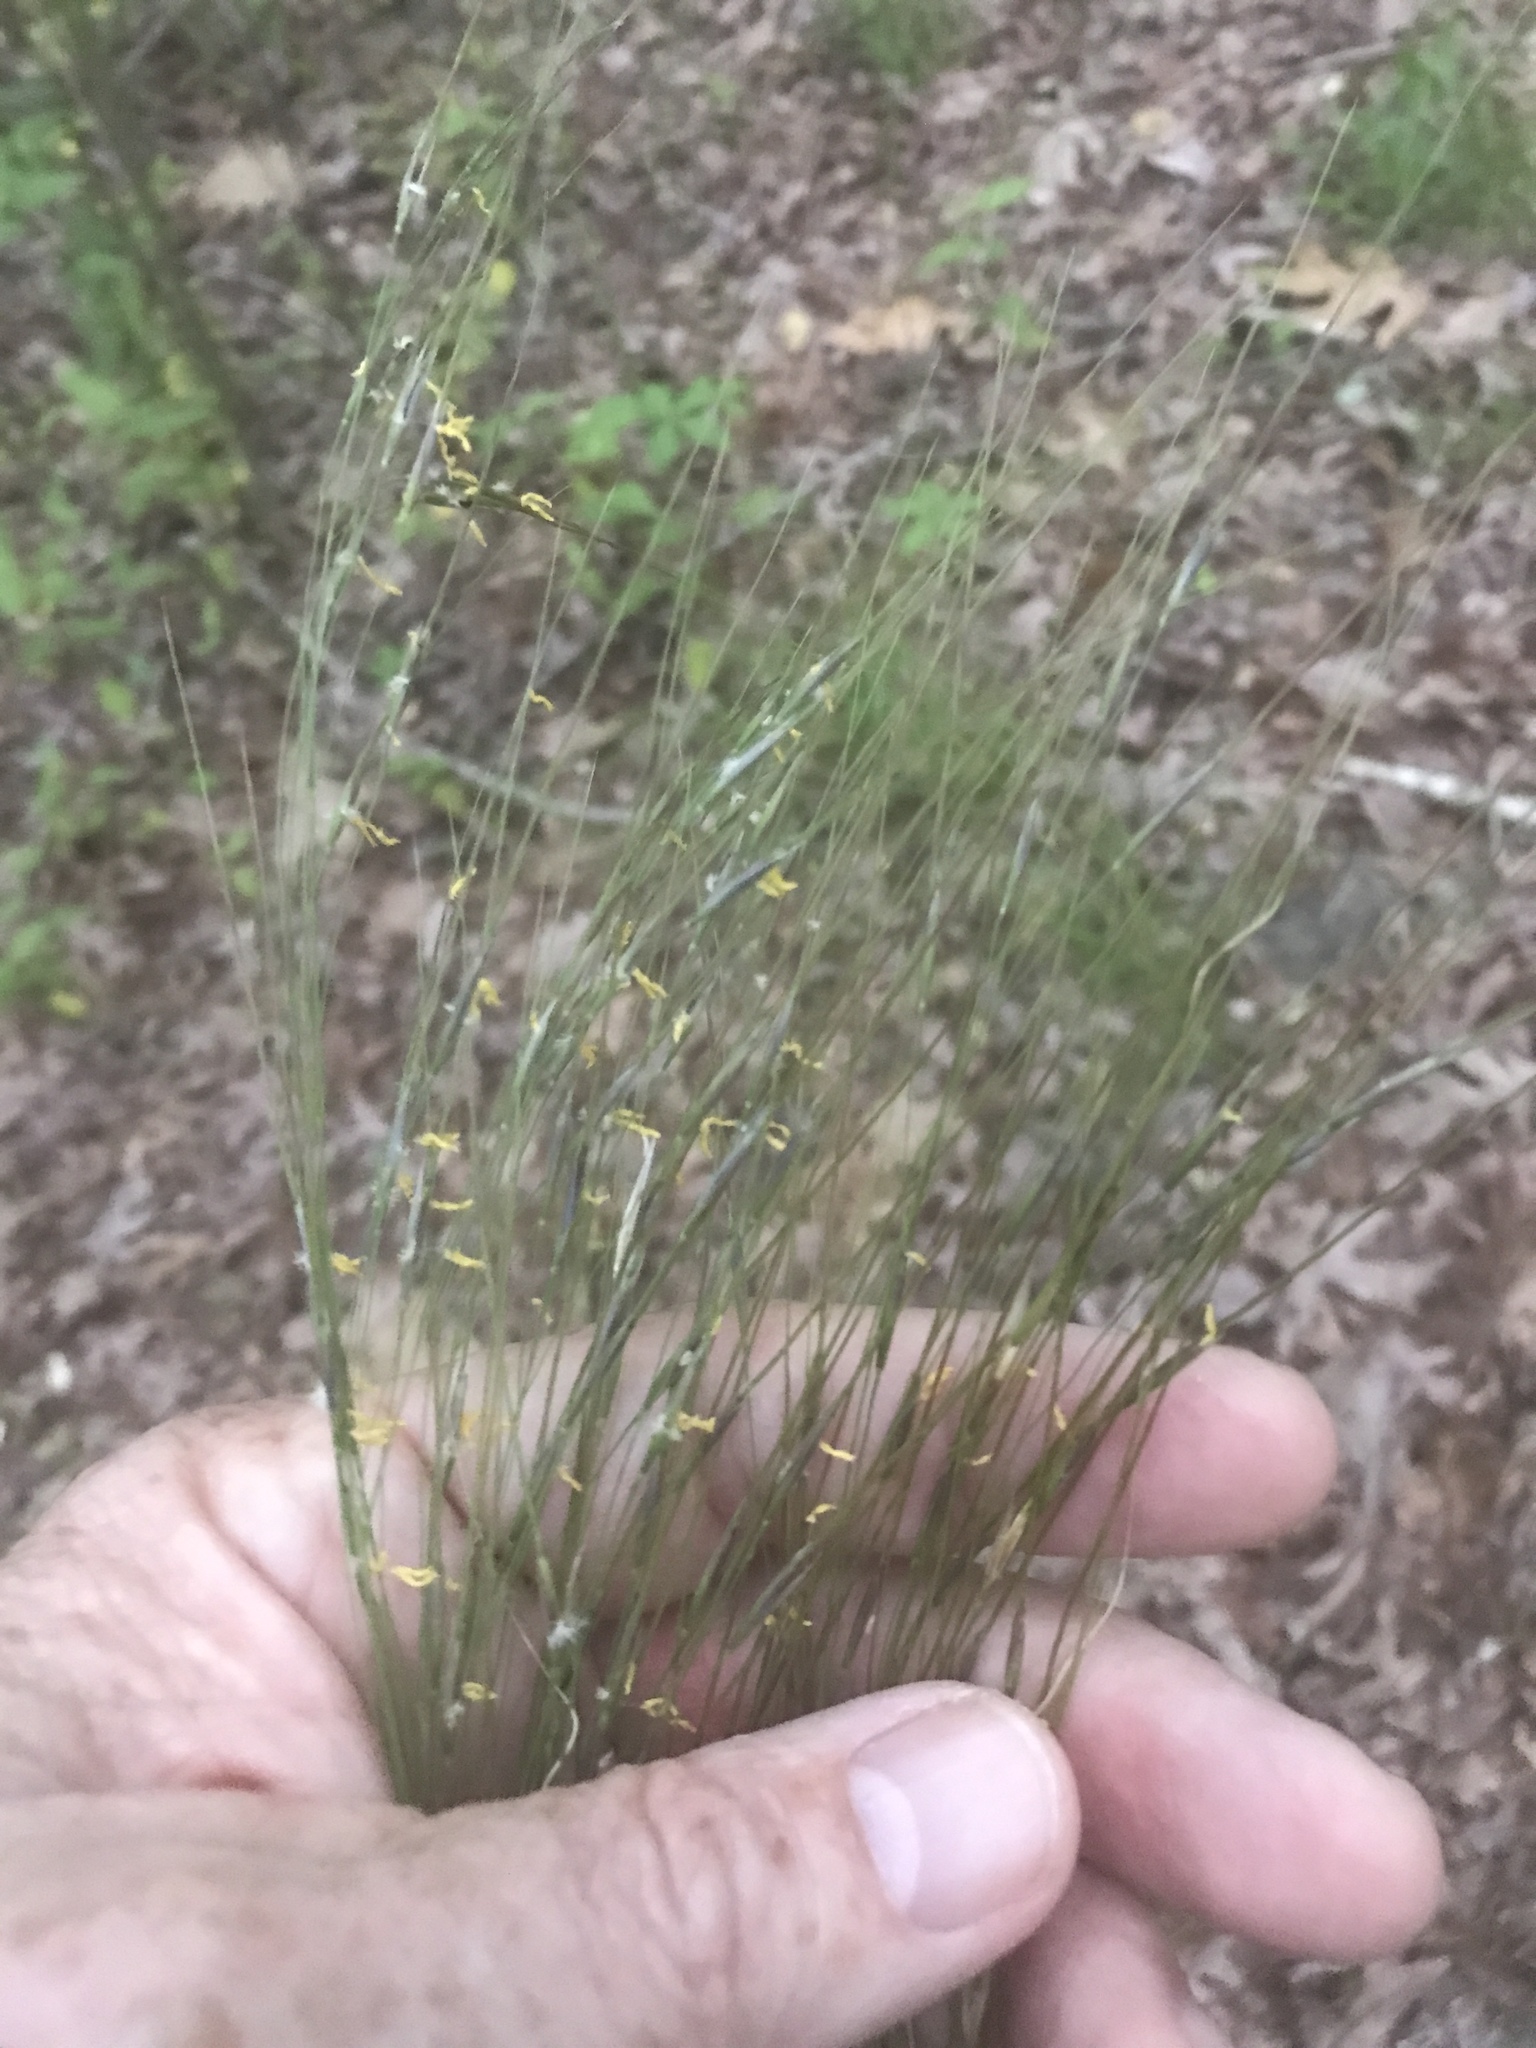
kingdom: Plantae
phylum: Tracheophyta
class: Liliopsida
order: Poales
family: Poaceae
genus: Piptochaetium
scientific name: Piptochaetium avenaceum
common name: Black bunchgrass
